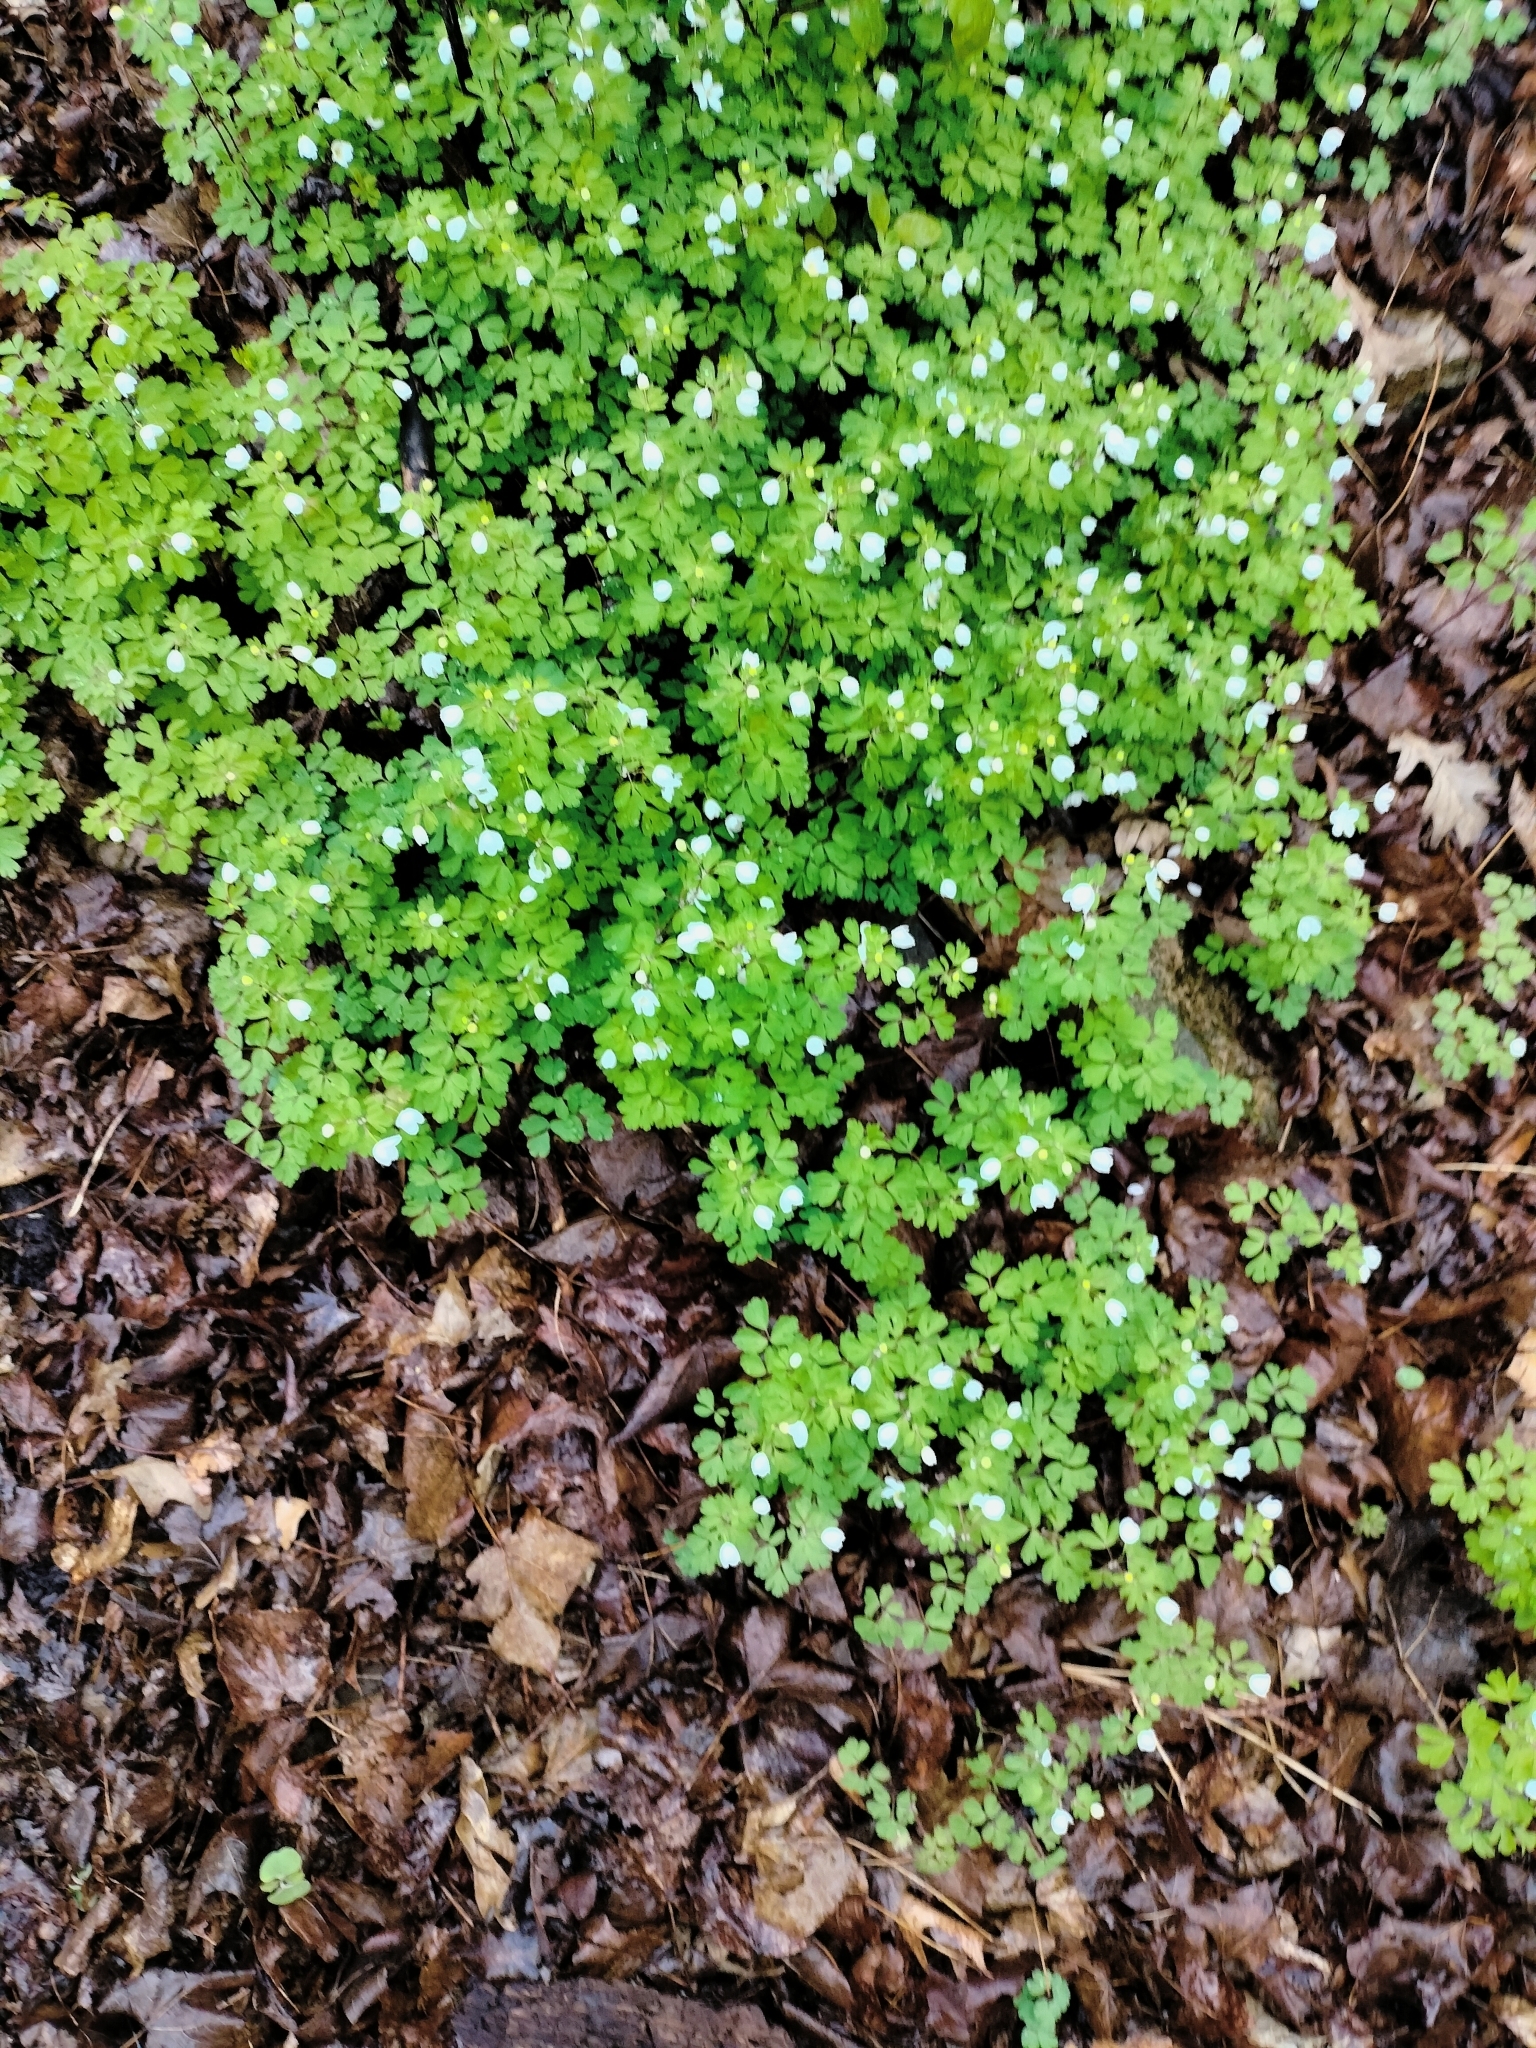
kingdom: Plantae
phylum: Tracheophyta
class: Magnoliopsida
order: Ranunculales
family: Ranunculaceae
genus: Enemion
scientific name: Enemion biternatum
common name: Eastern false rue-anemone
